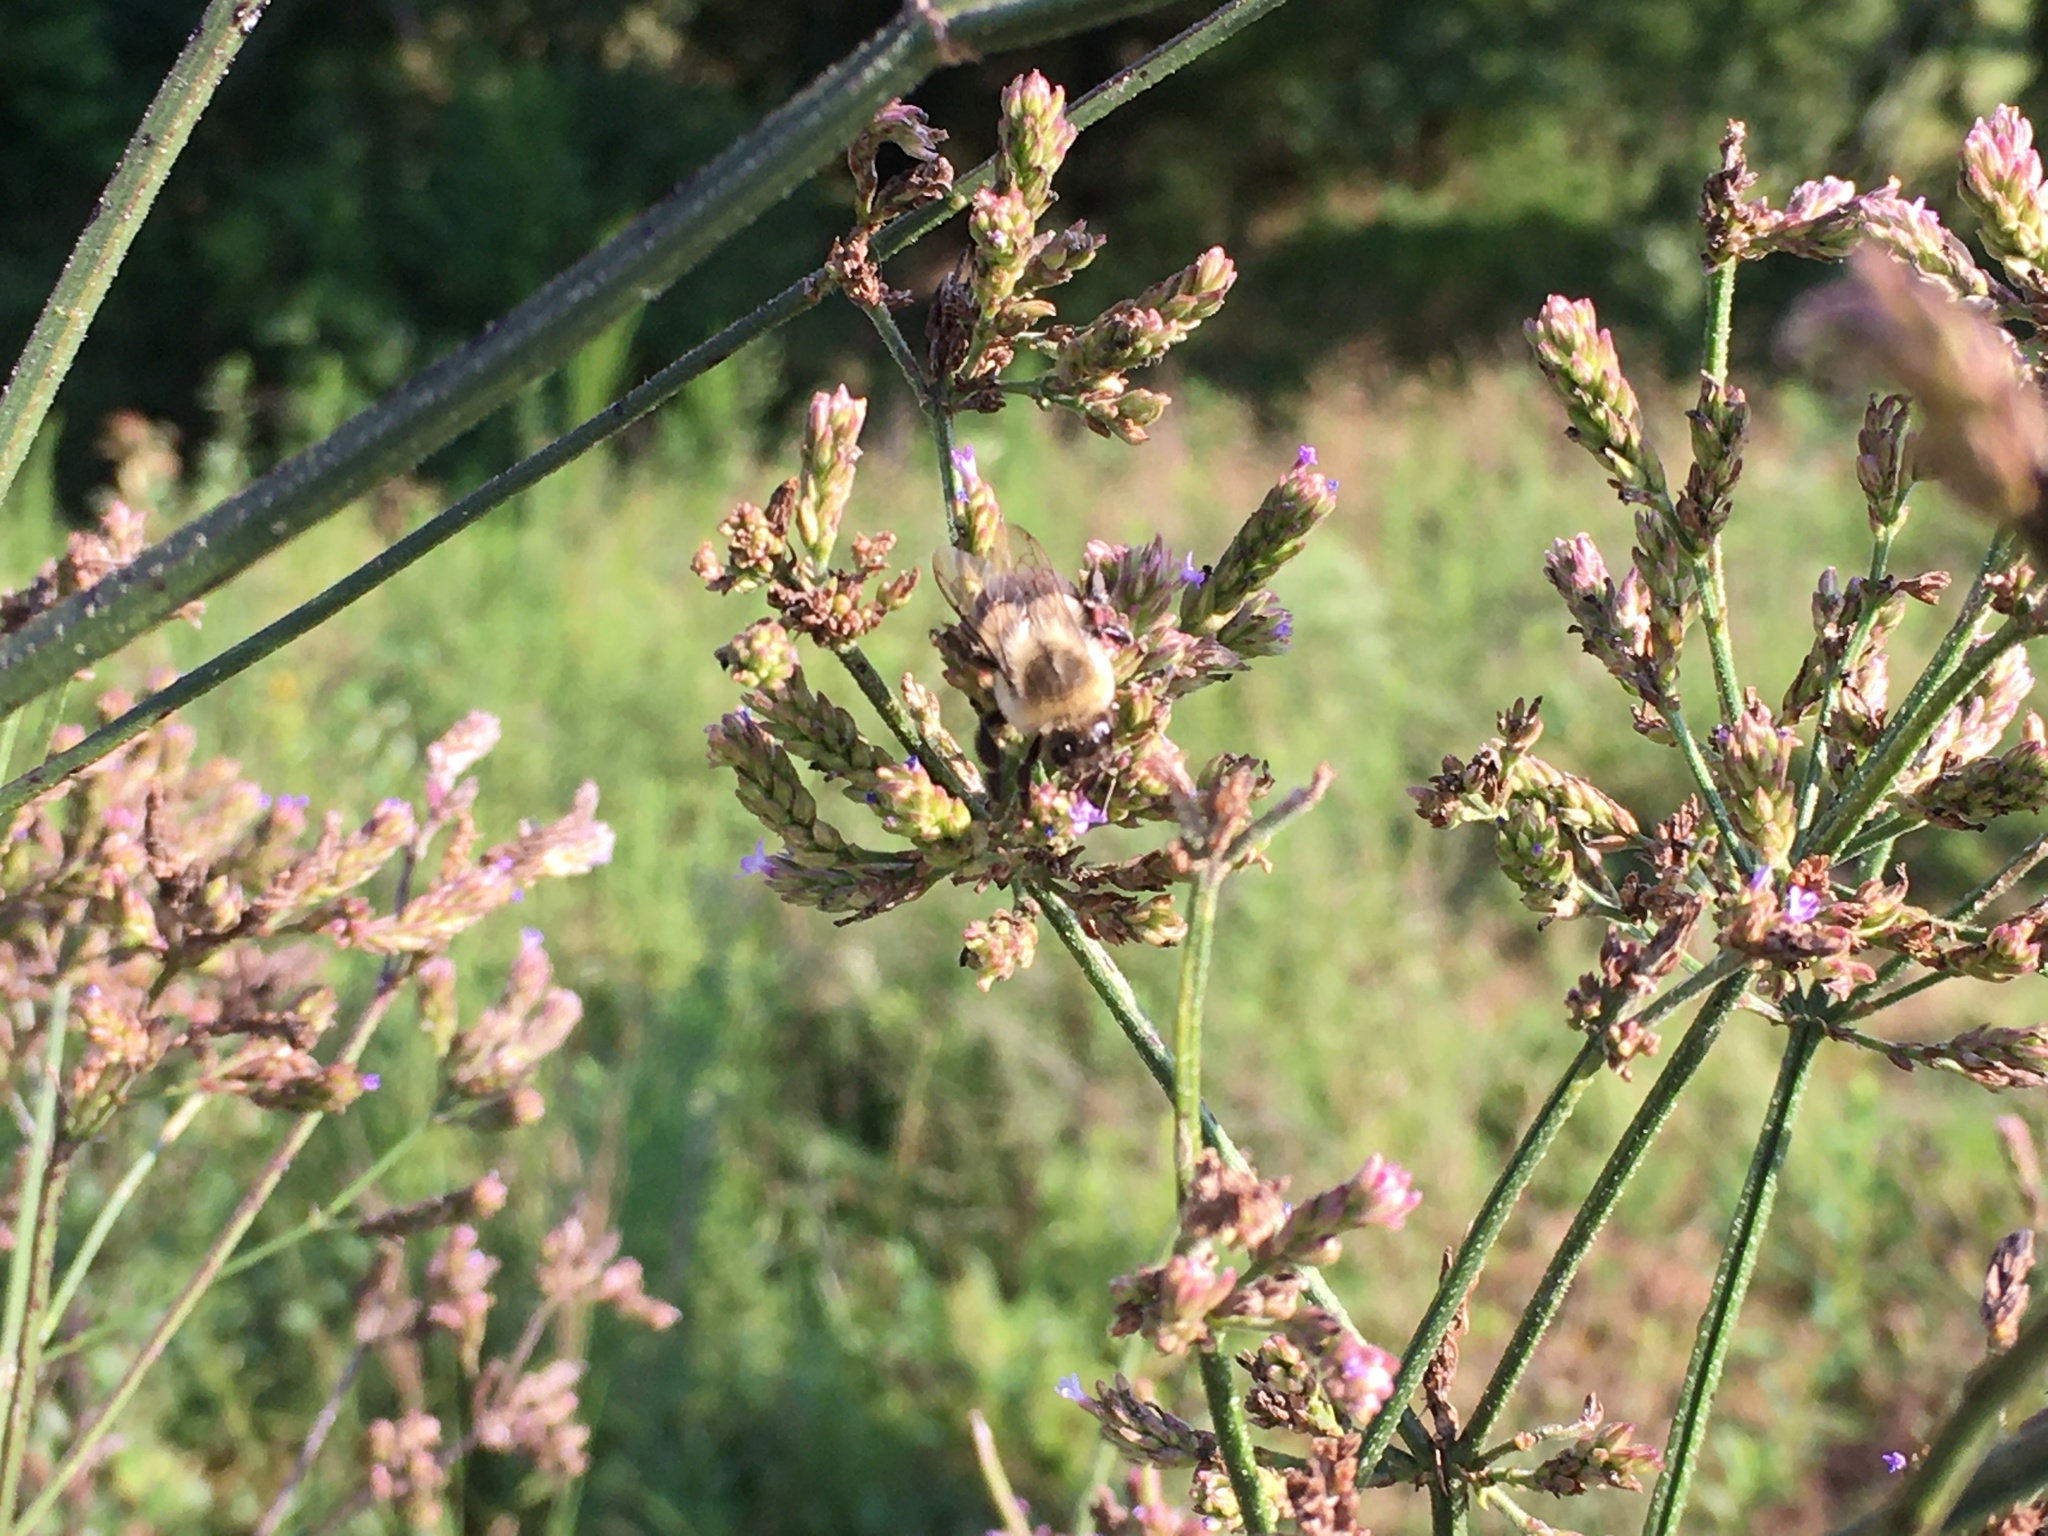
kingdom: Animalia
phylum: Arthropoda
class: Insecta
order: Hymenoptera
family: Apidae
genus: Bombus
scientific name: Bombus impatiens
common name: Common eastern bumble bee
